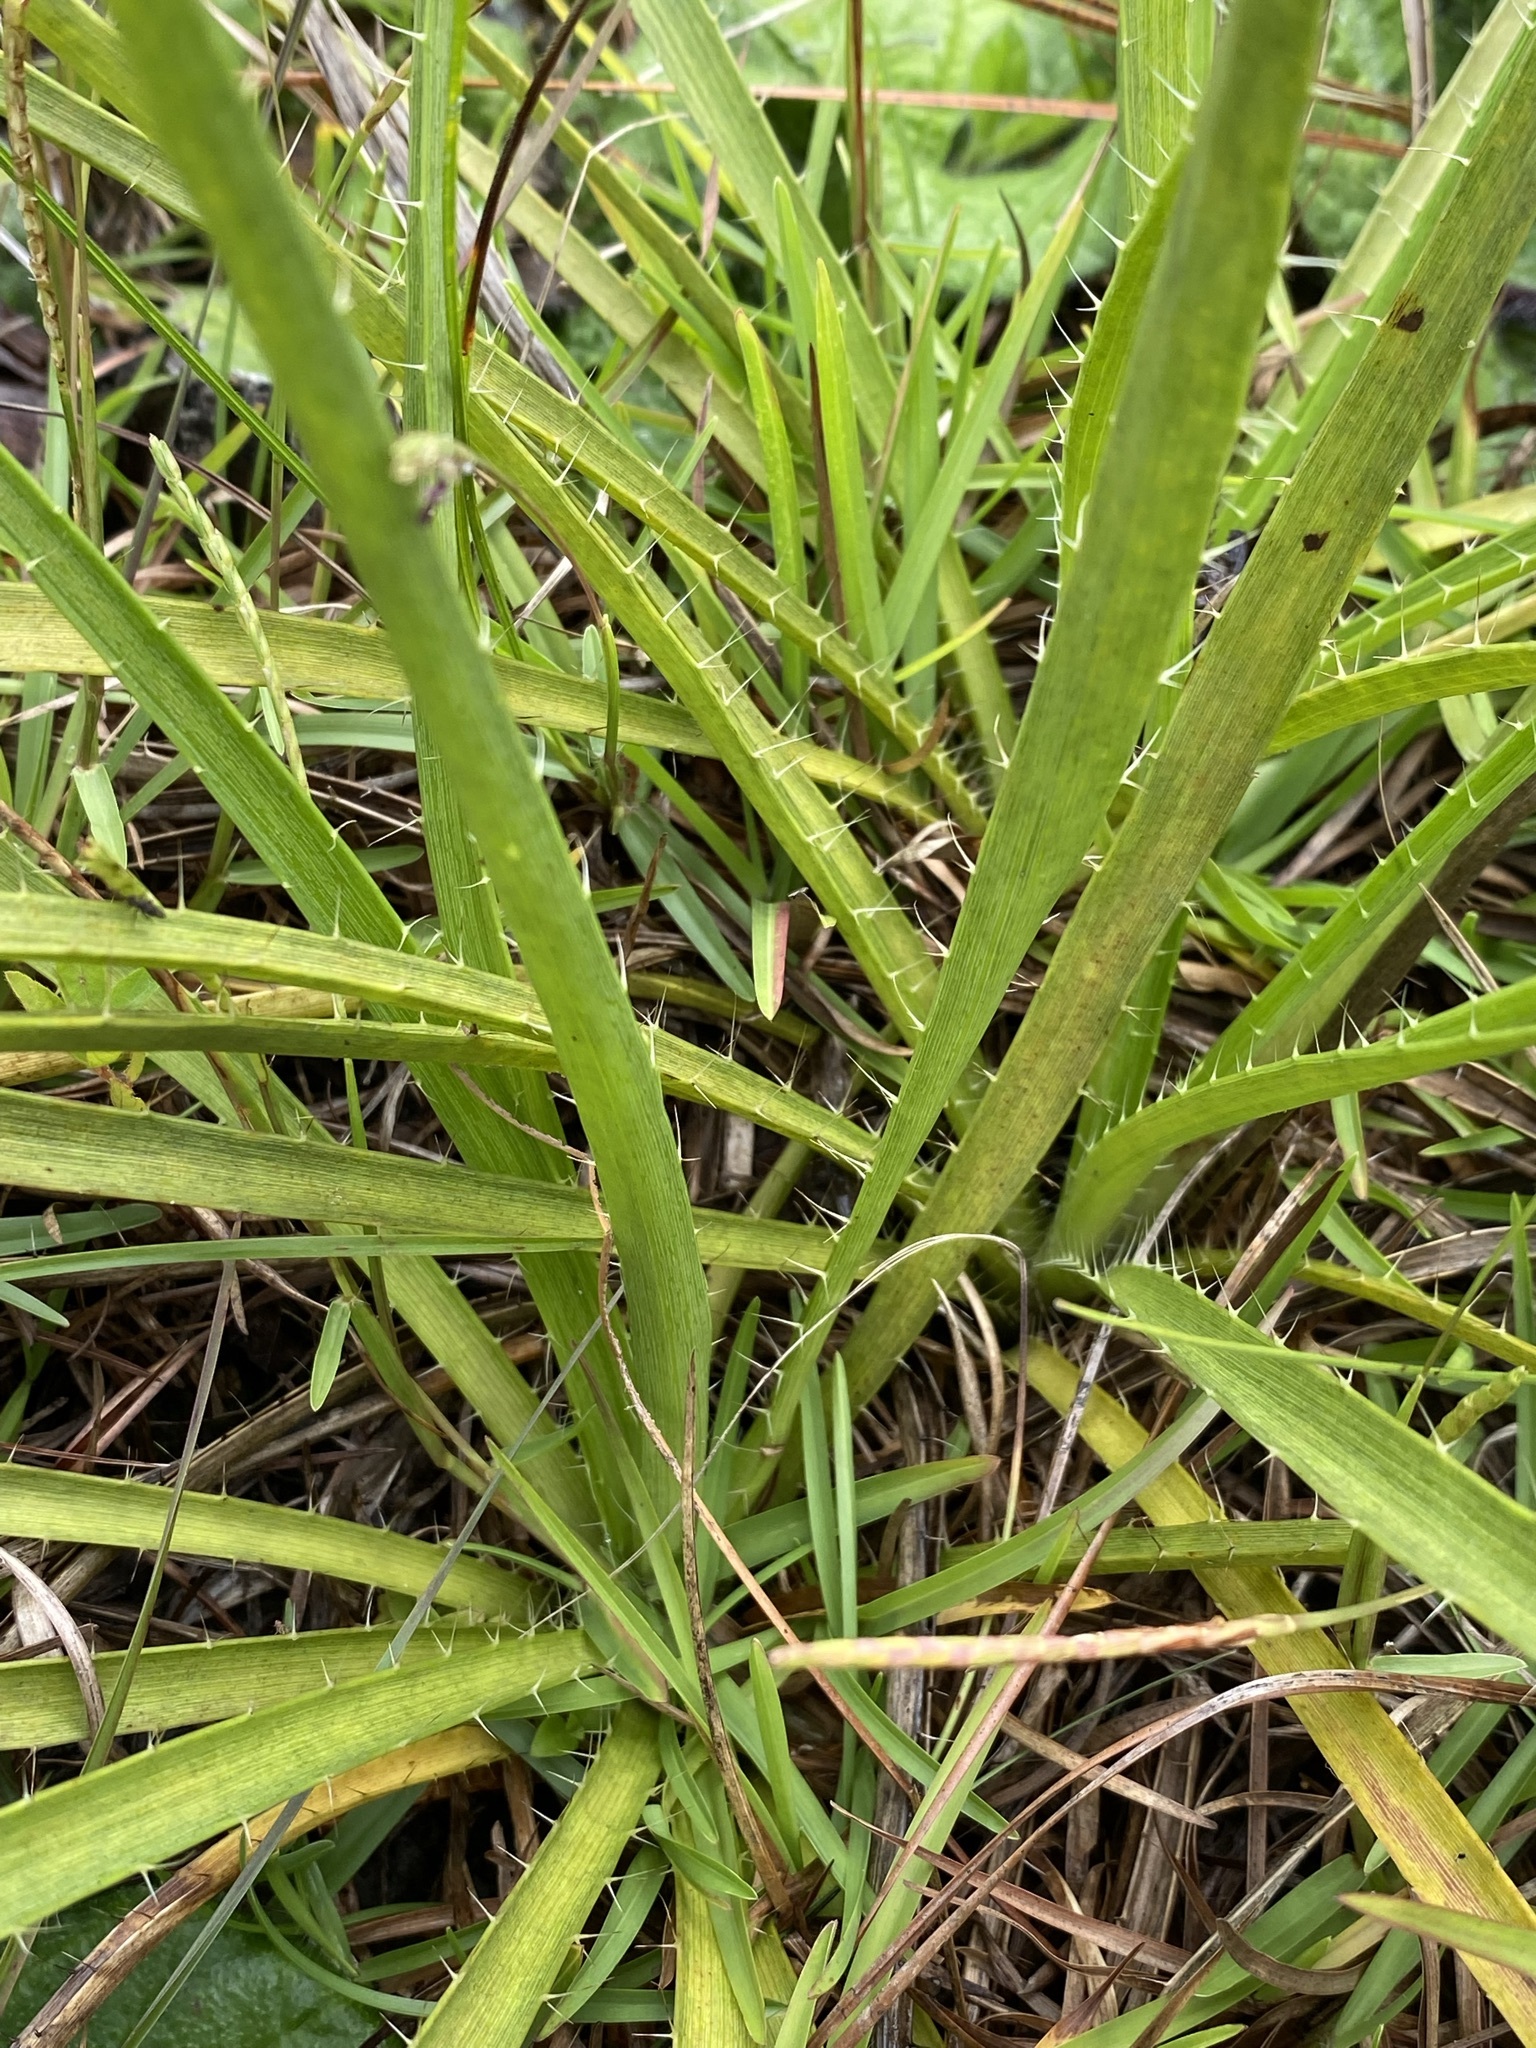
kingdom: Plantae
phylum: Tracheophyta
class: Magnoliopsida
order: Apiales
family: Apiaceae
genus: Eryngium
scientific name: Eryngium yuccifolium
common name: Button eryngo
